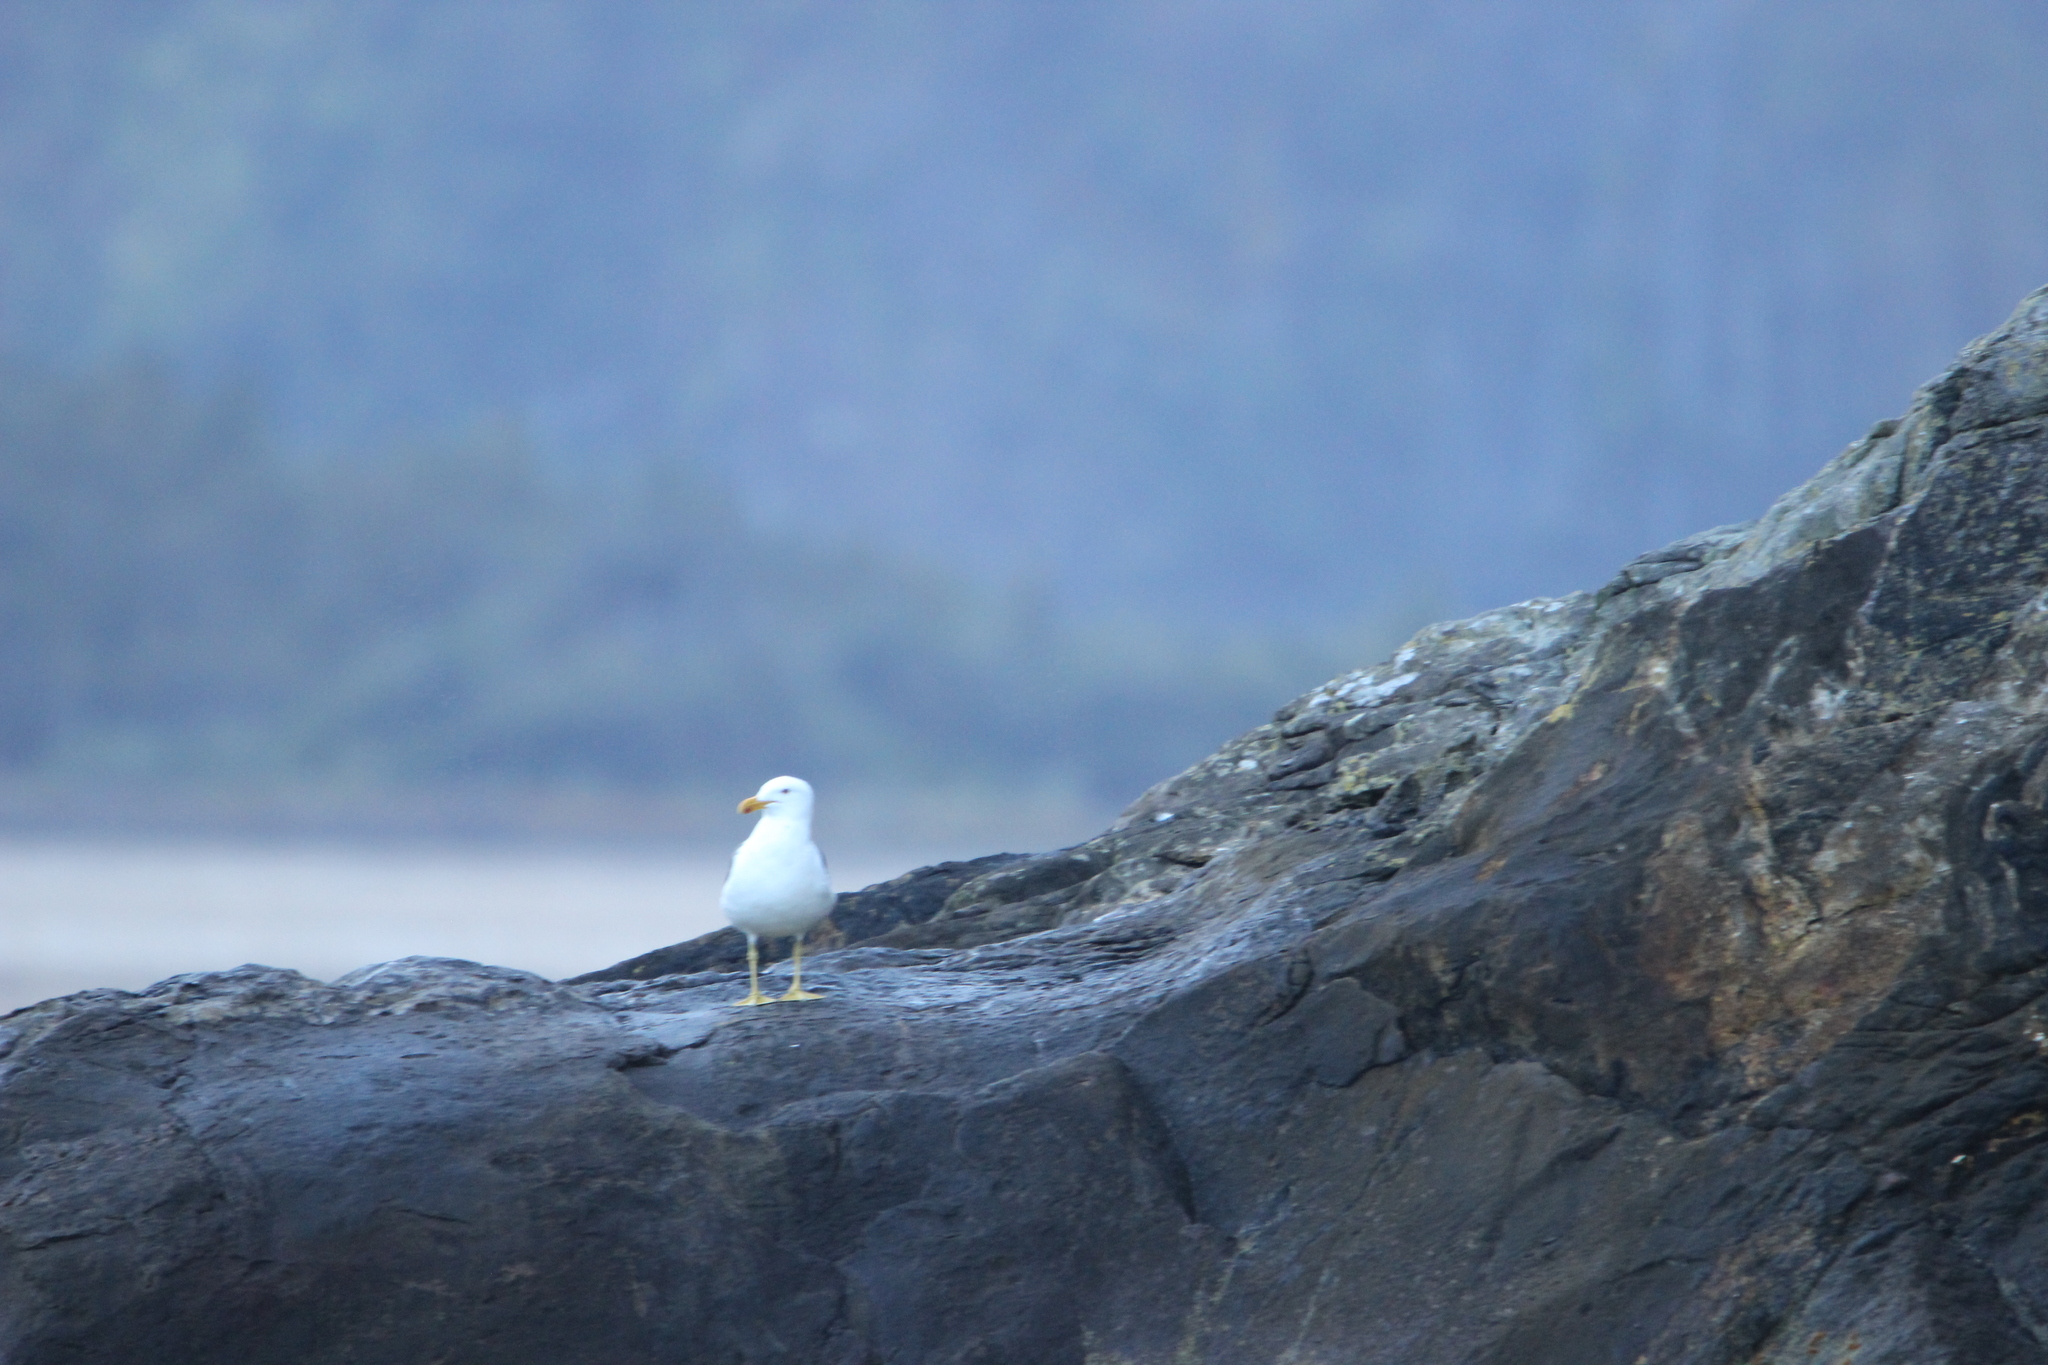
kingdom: Animalia
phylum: Chordata
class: Aves
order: Charadriiformes
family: Laridae
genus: Larus
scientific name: Larus dominicanus
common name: Kelp gull
